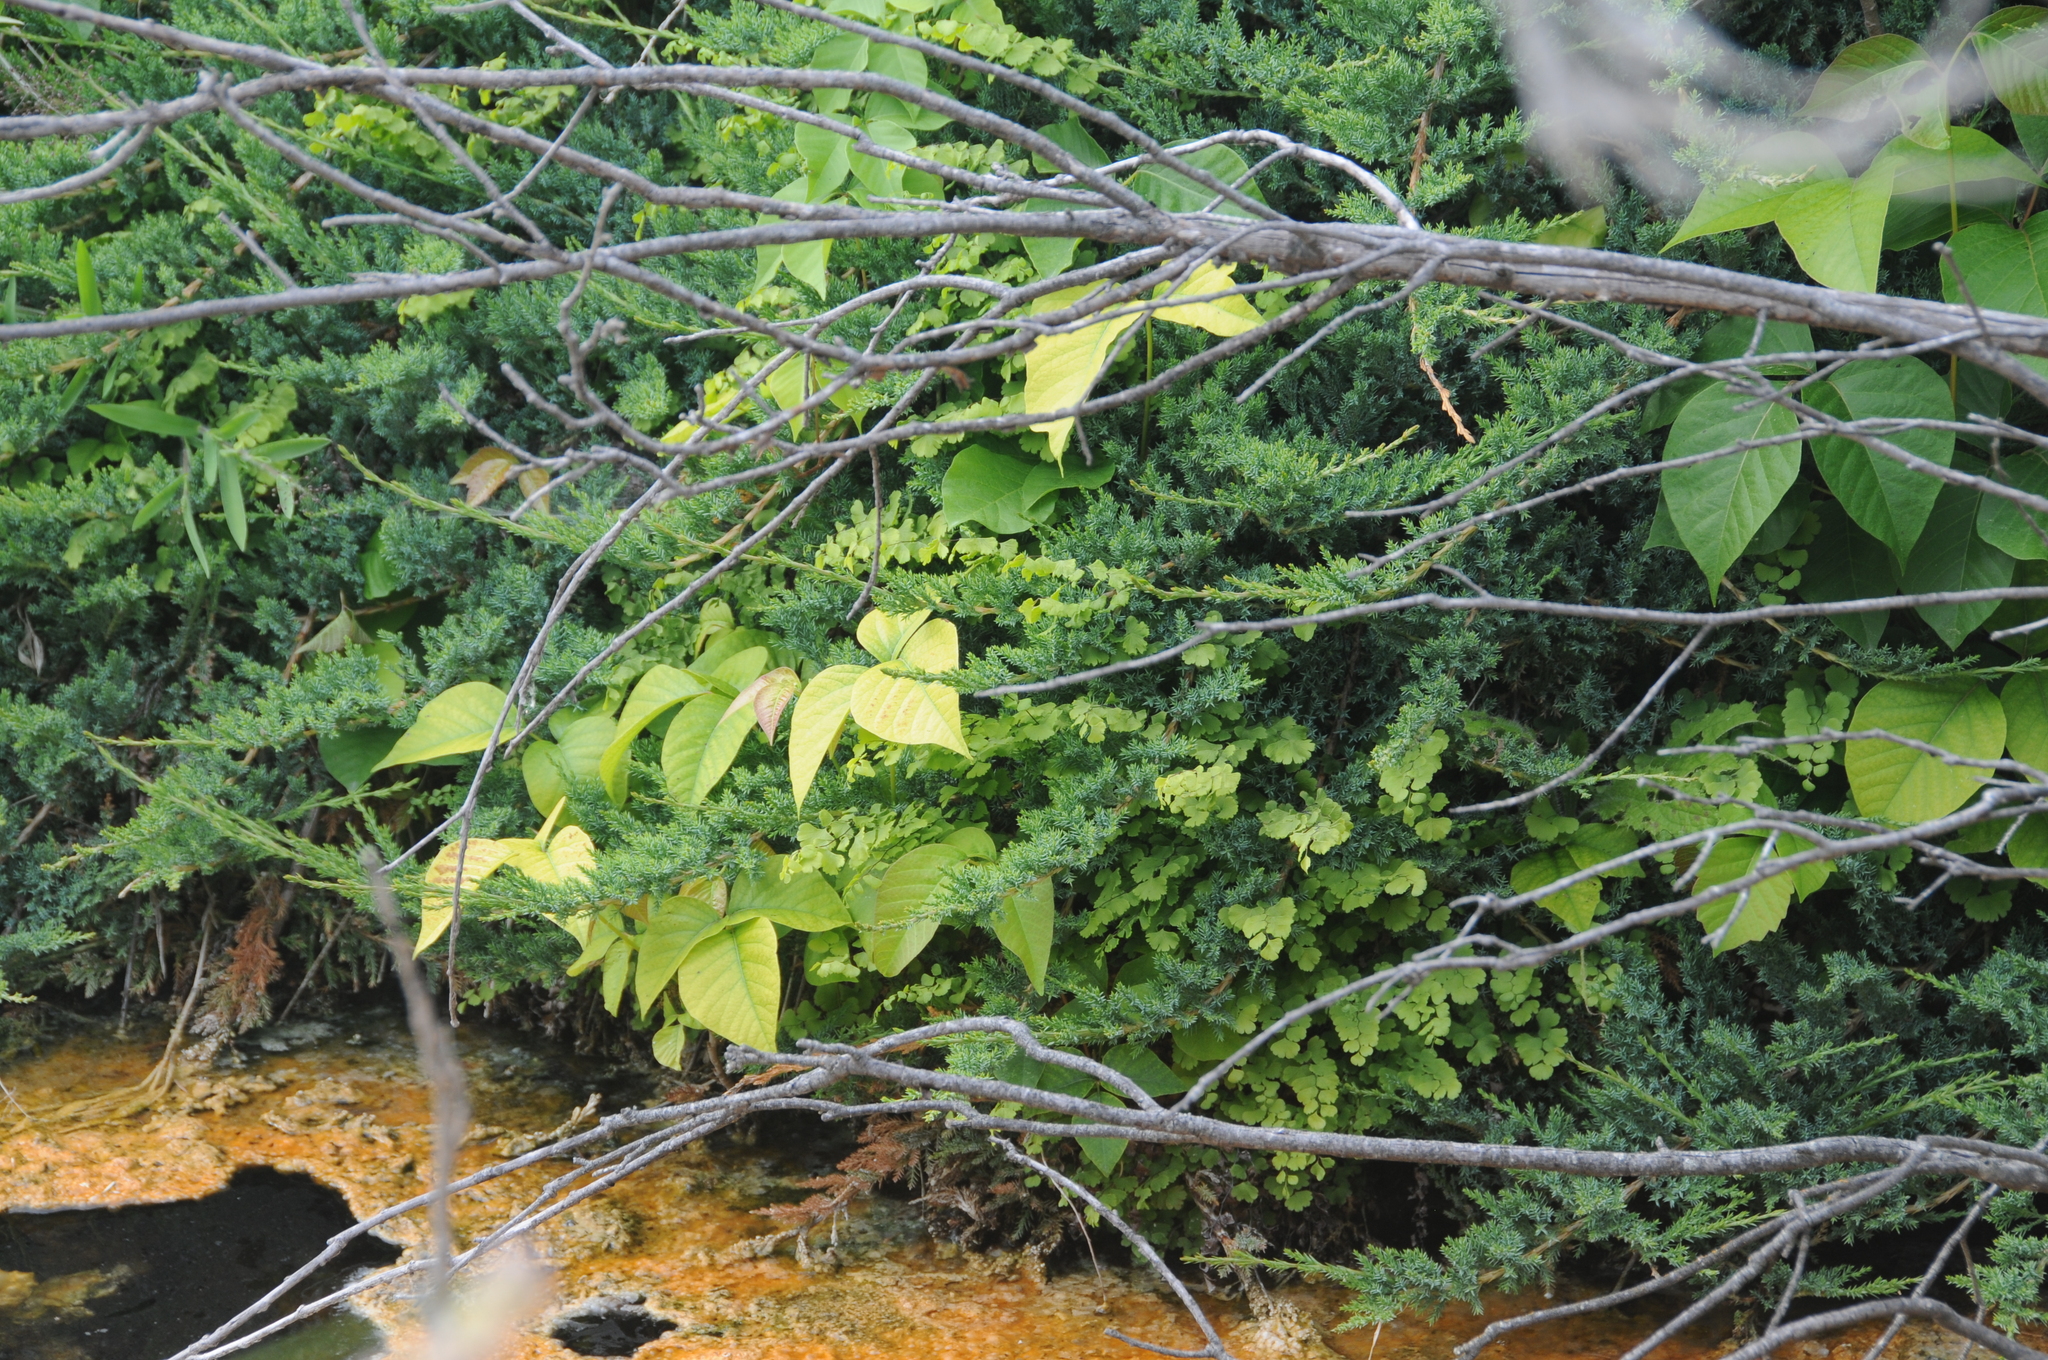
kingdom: Plantae
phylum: Tracheophyta
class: Polypodiopsida
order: Polypodiales
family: Pteridaceae
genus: Adiantum
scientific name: Adiantum capillus-veneris
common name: Maidenhair fern
